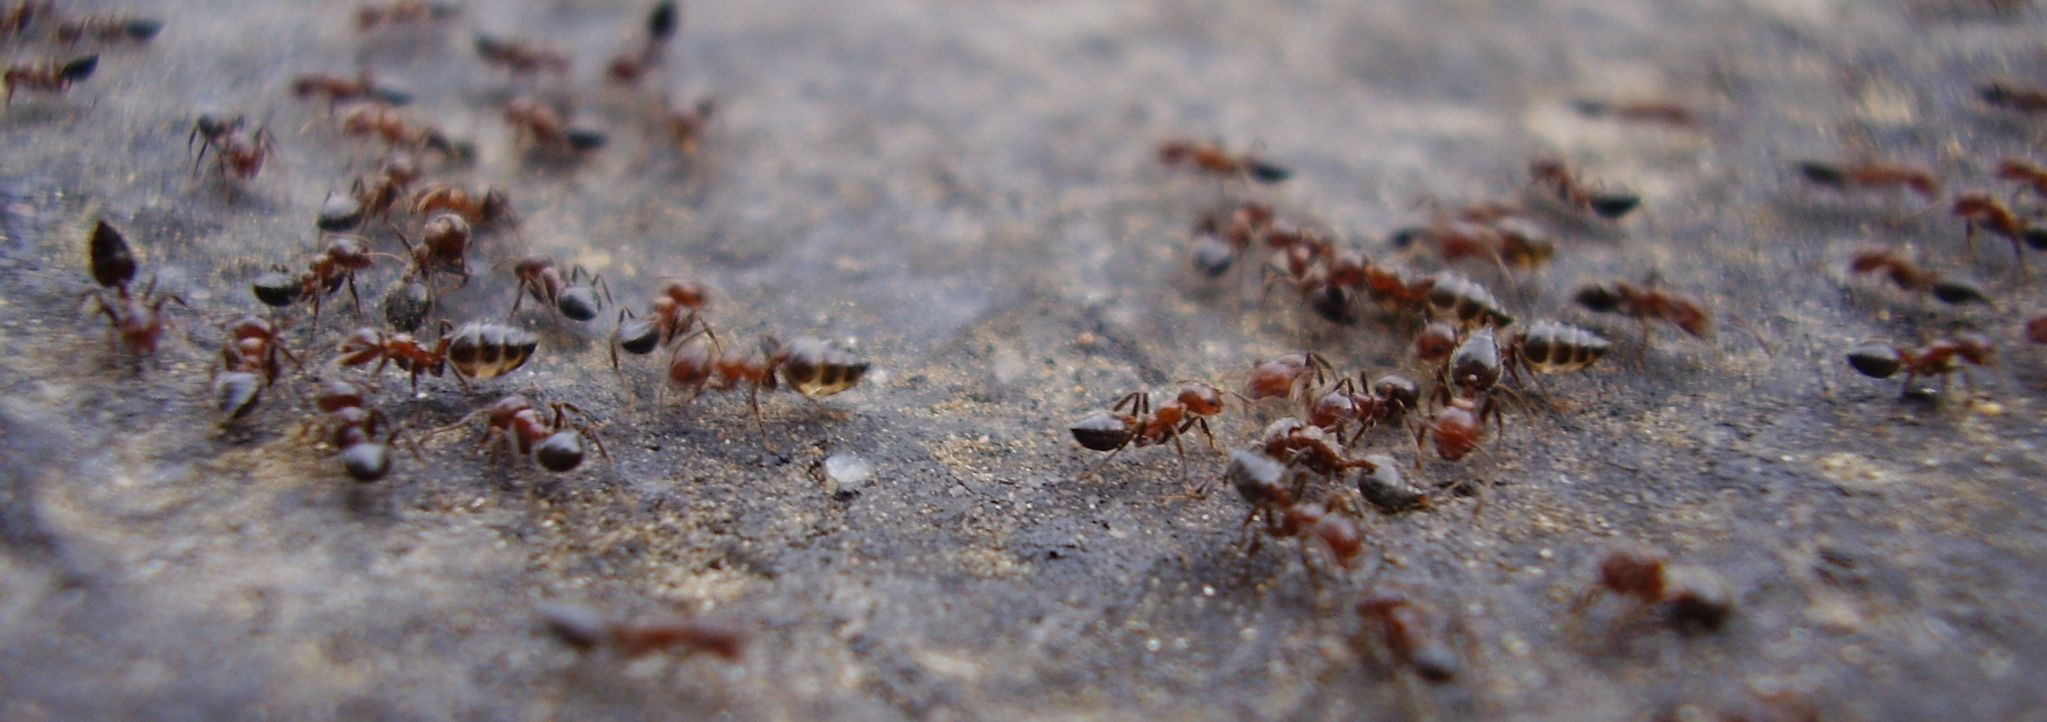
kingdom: Animalia
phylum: Arthropoda
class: Insecta
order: Hymenoptera
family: Formicidae
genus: Crematogaster
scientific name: Crematogaster subdentata
